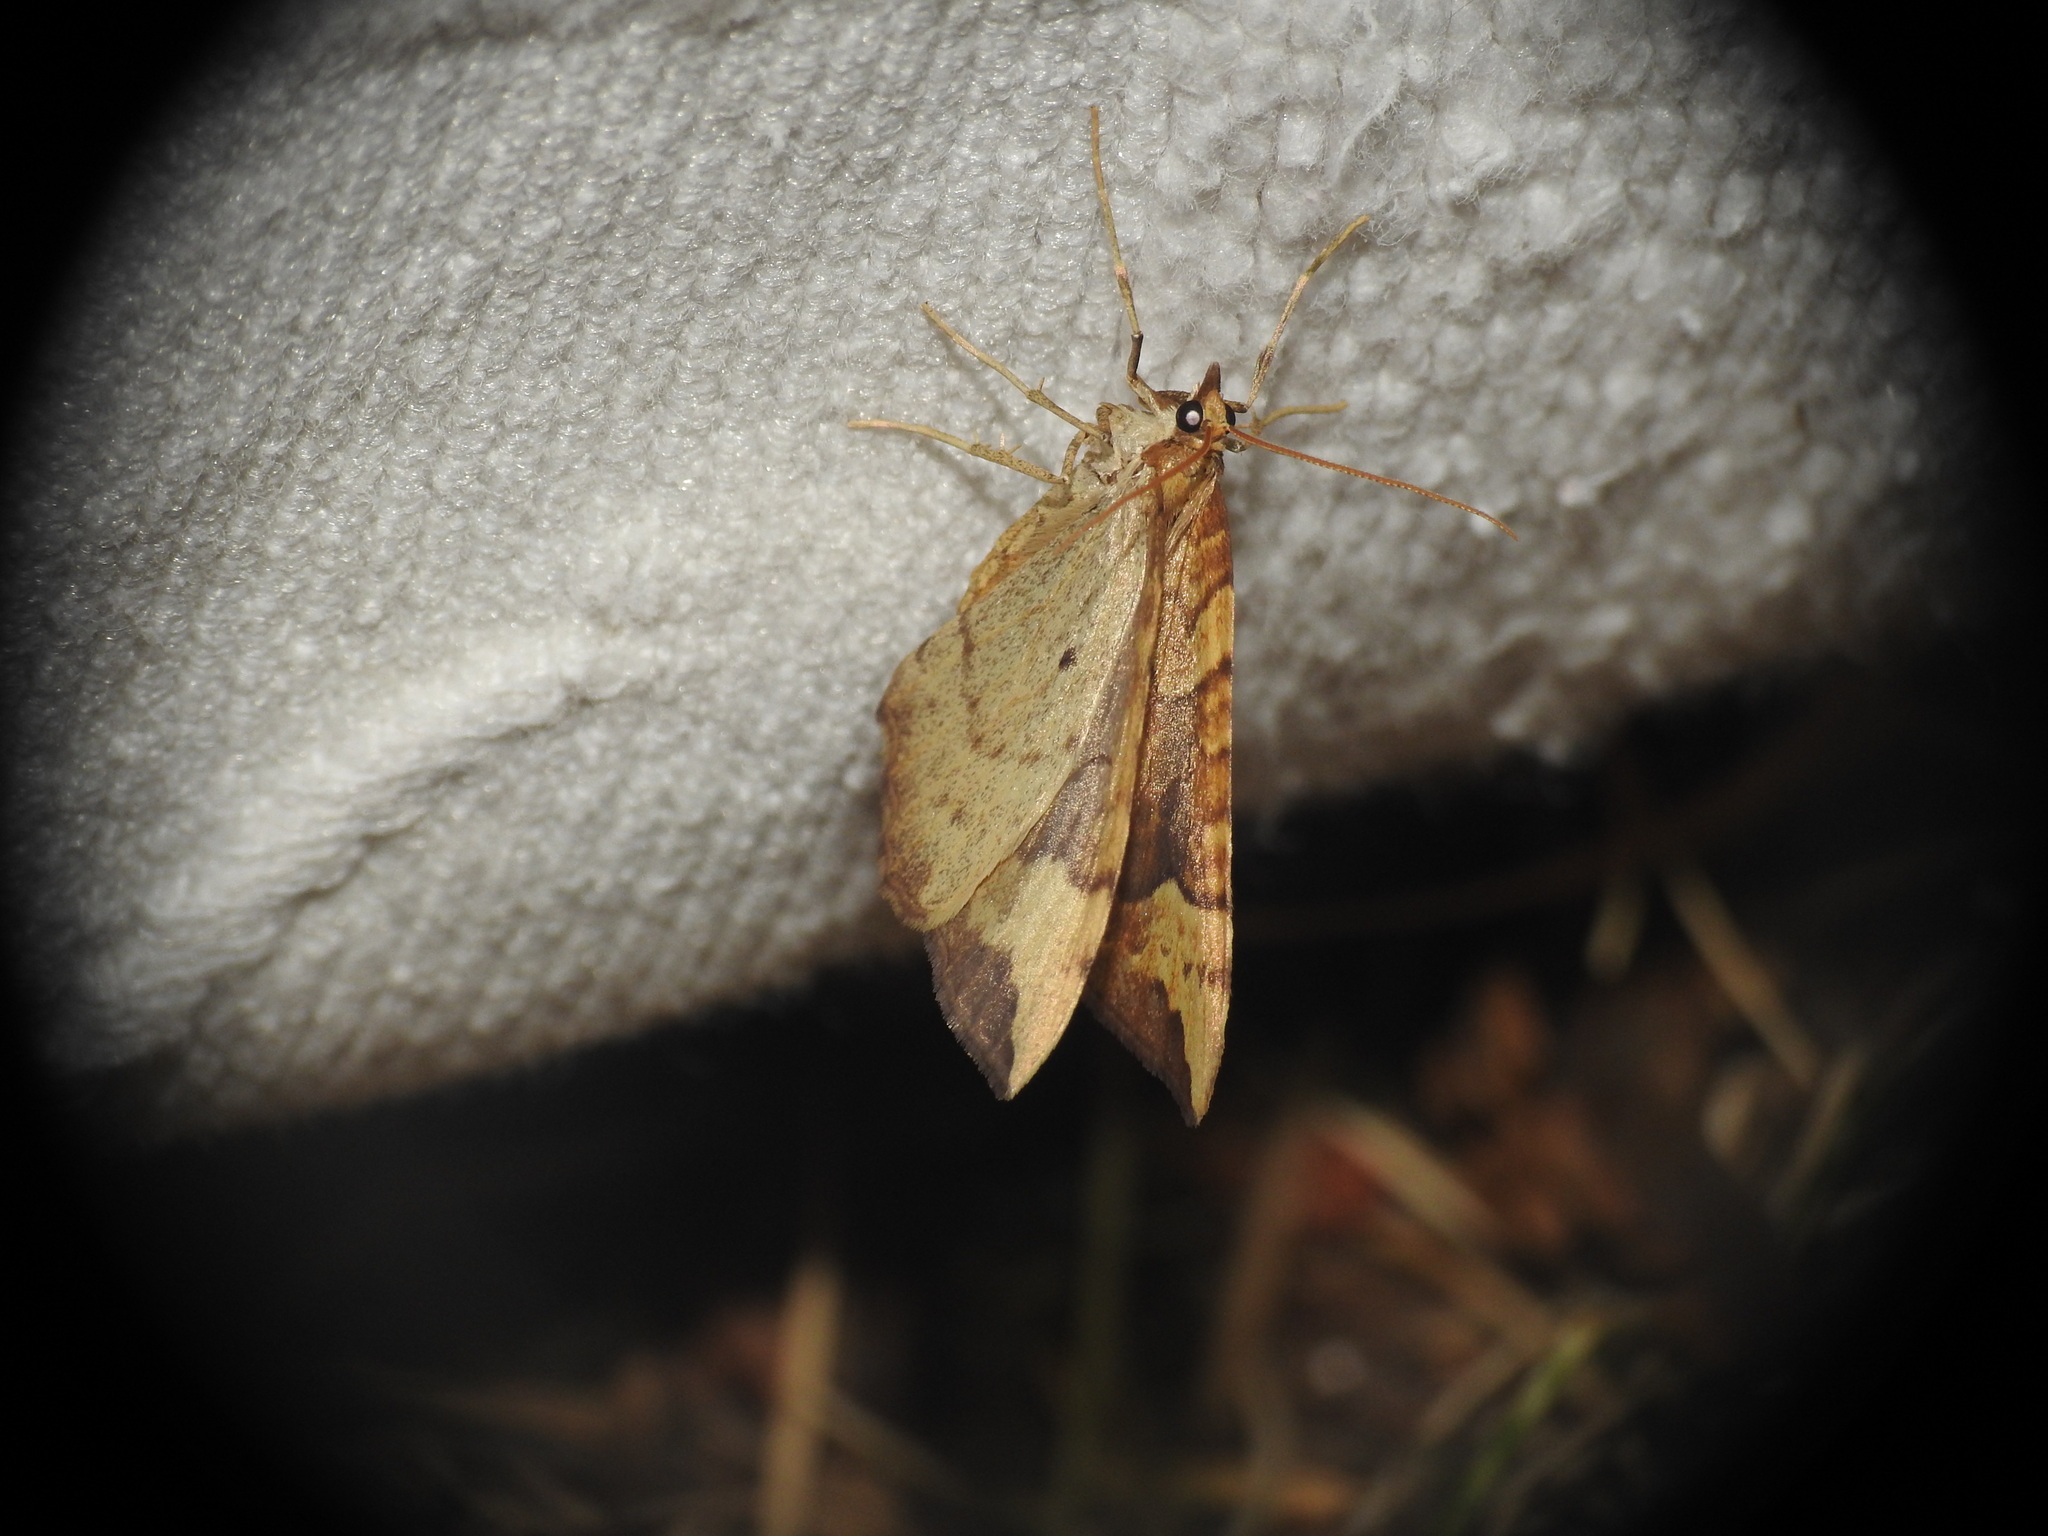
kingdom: Animalia
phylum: Arthropoda
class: Insecta
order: Lepidoptera
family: Geometridae
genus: Eulithis
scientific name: Eulithis populata
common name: Northern spinach
